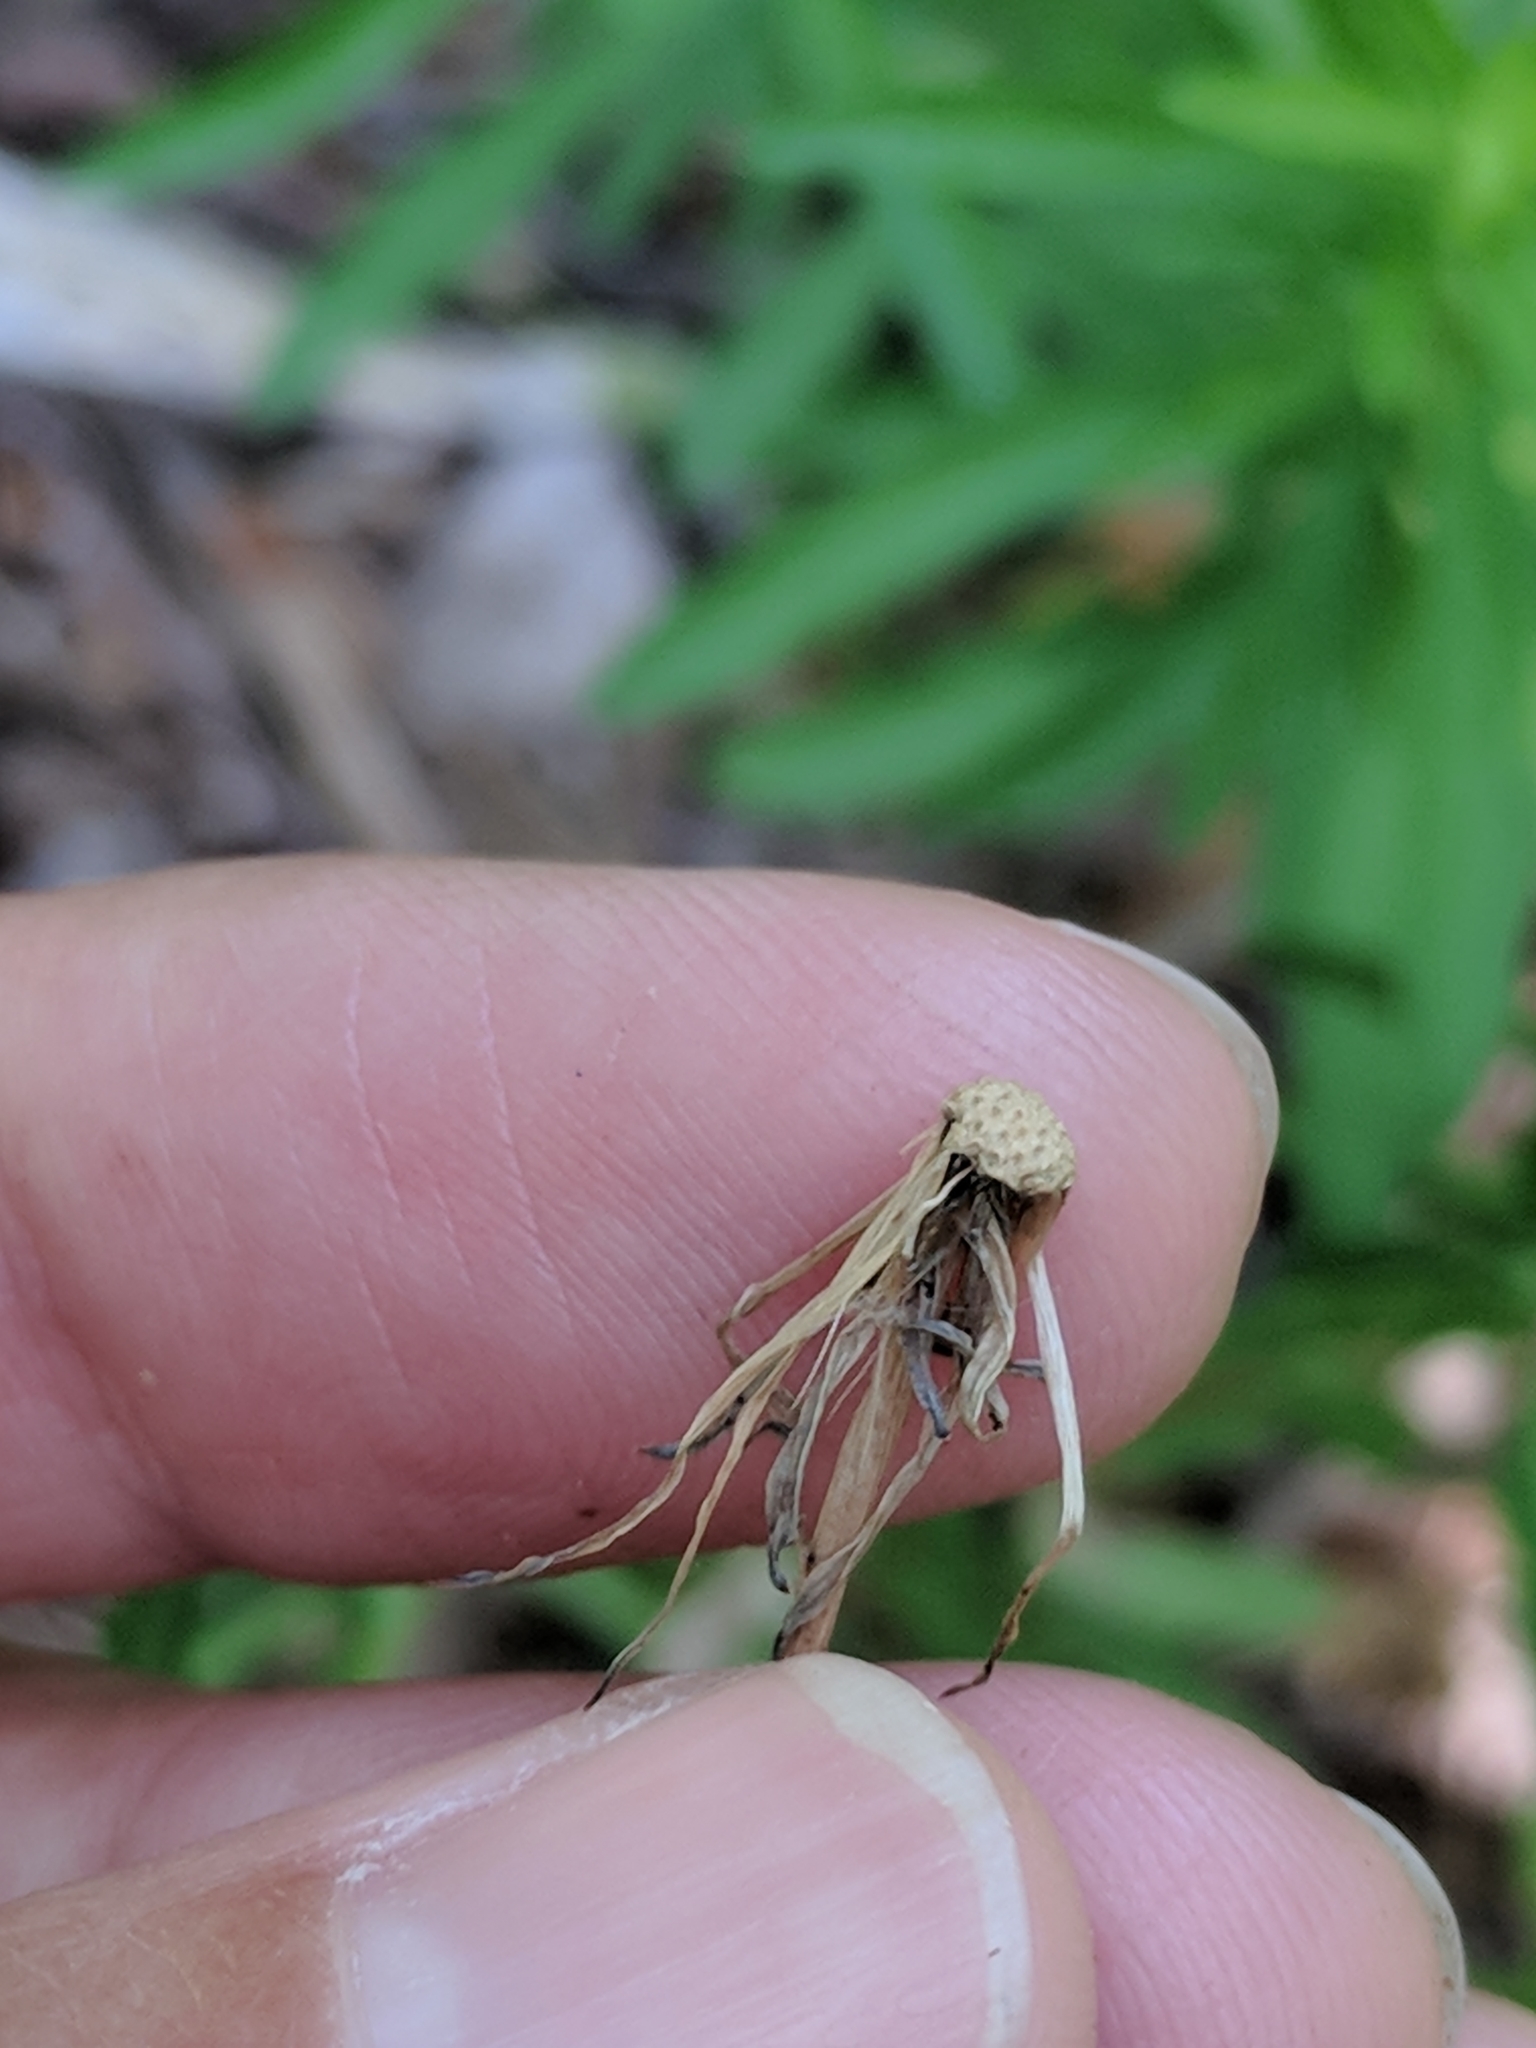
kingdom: Plantae
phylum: Tracheophyta
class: Magnoliopsida
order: Asterales
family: Asteraceae
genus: Hypochaeris
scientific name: Hypochaeris glabra
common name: Smooth catsear
